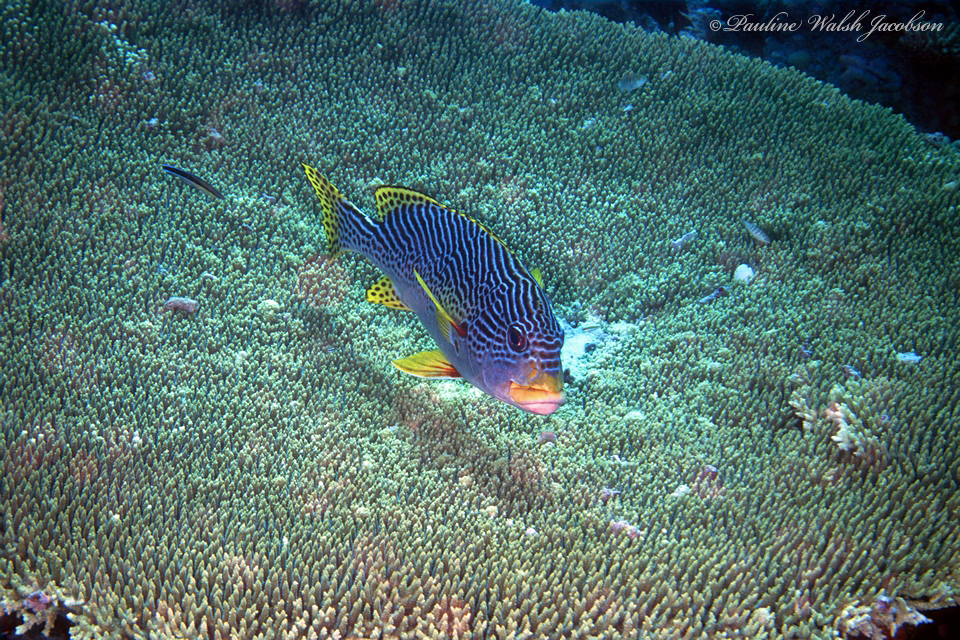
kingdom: Animalia
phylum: Chordata
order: Perciformes
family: Haemulidae
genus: Plectorhinchus
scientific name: Plectorhinchus lineatus
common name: Goldman's sweetlips
